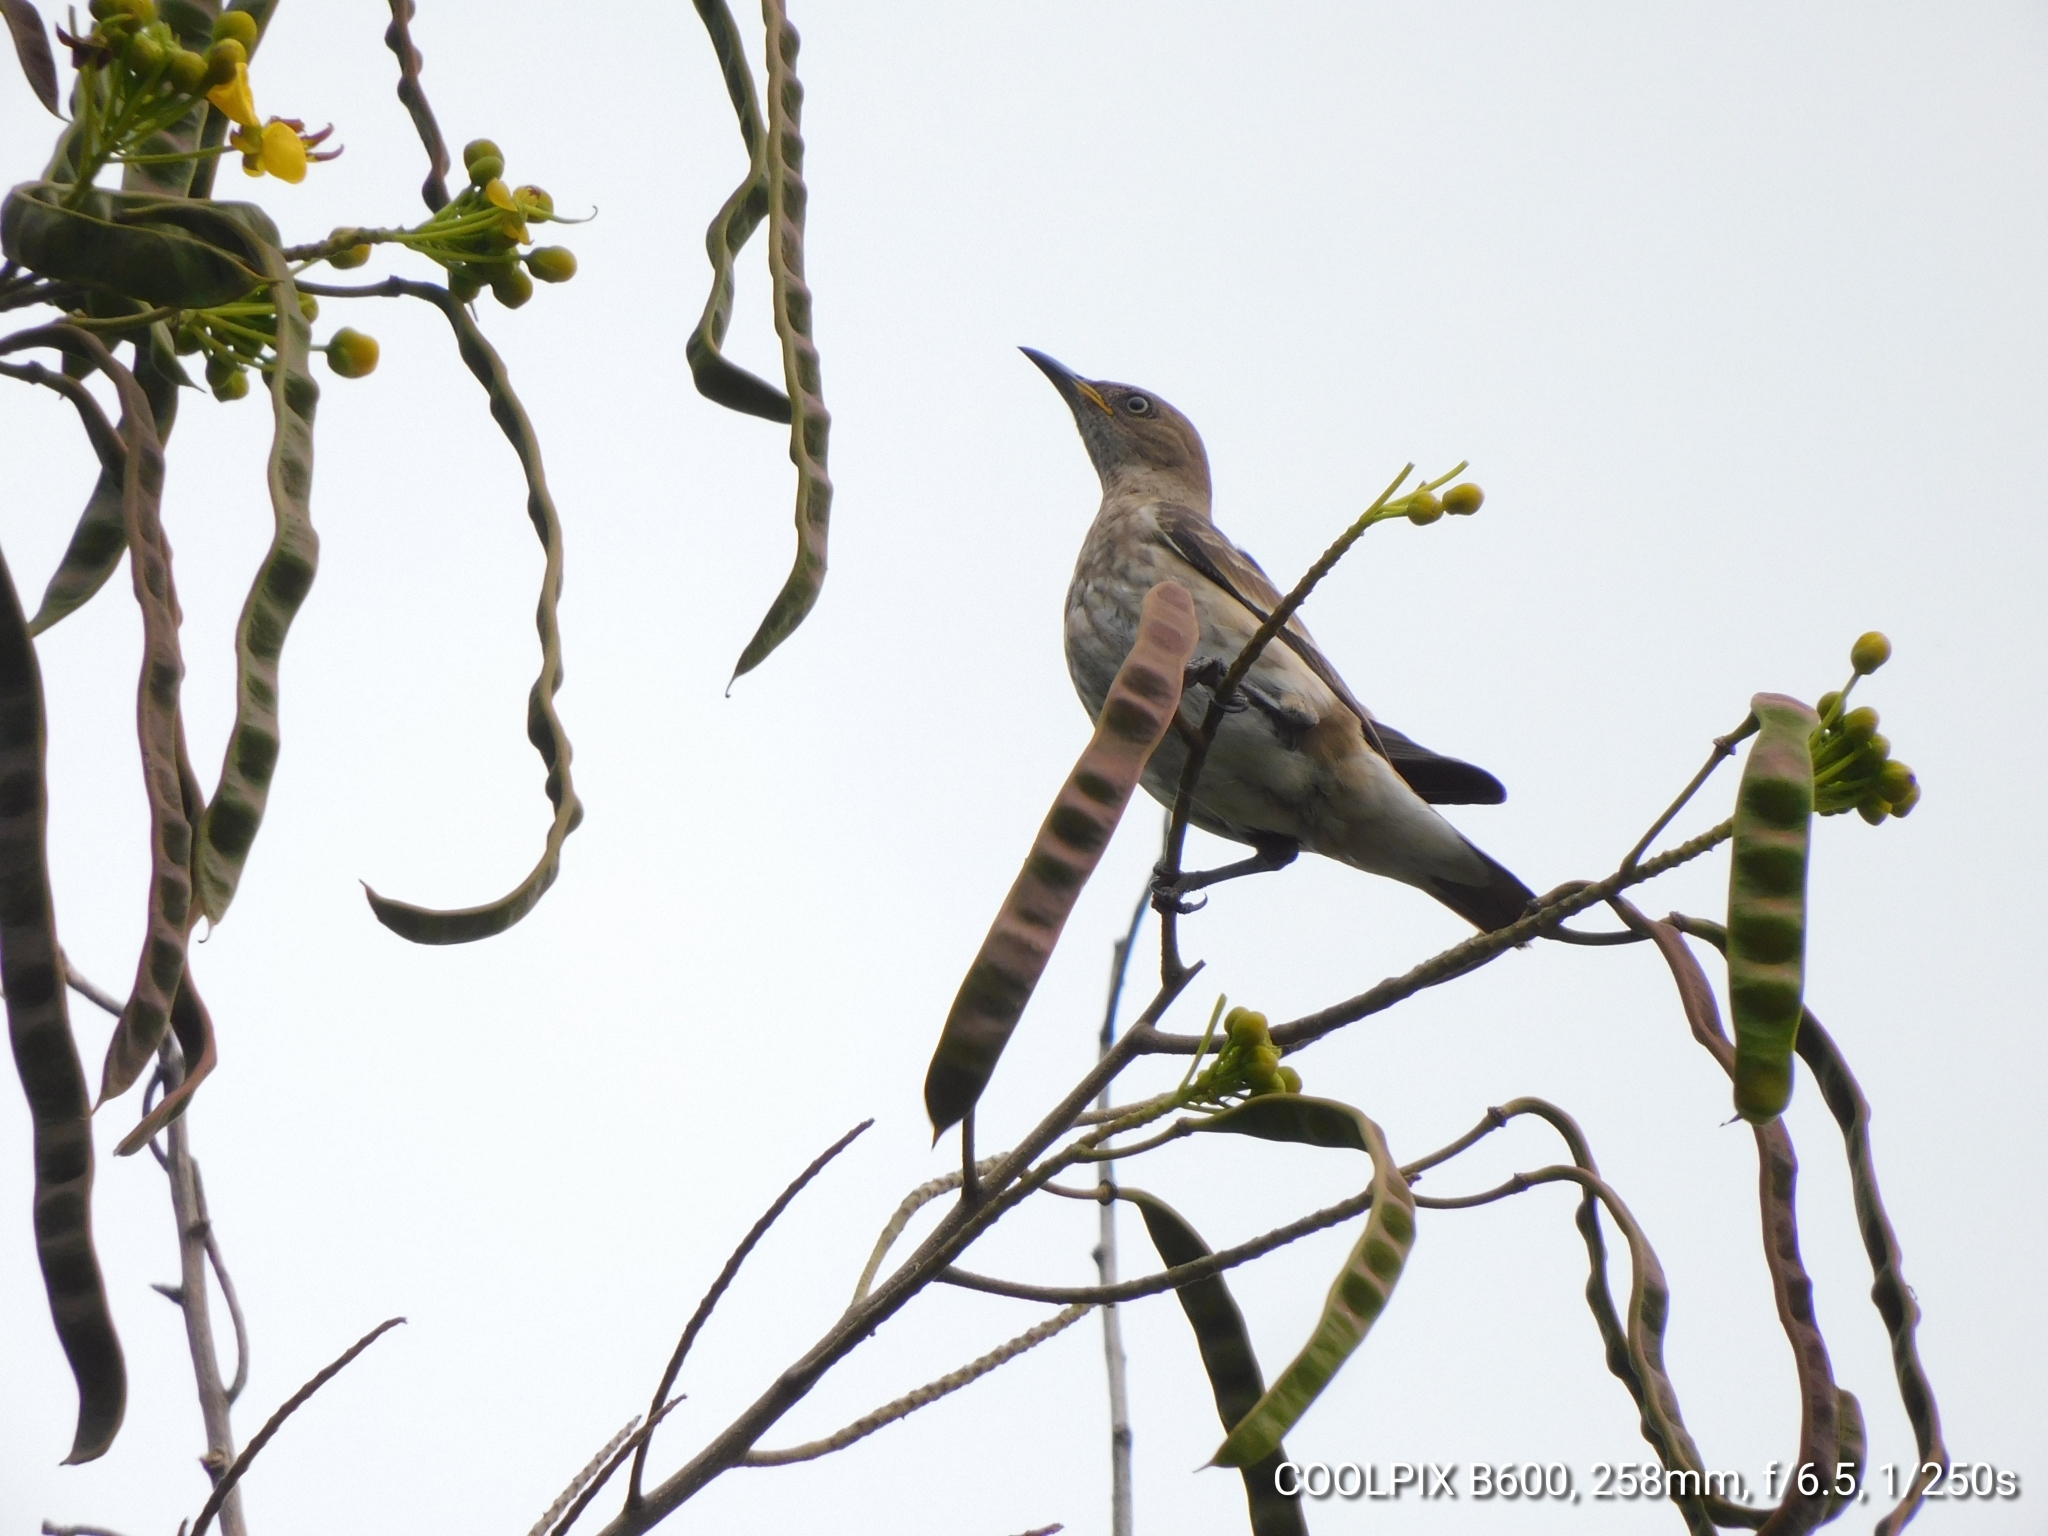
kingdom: Animalia
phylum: Chordata
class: Aves
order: Passeriformes
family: Sturnidae
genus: Saroglossa
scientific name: Saroglossa spiloptera
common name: Spot-winged starling
